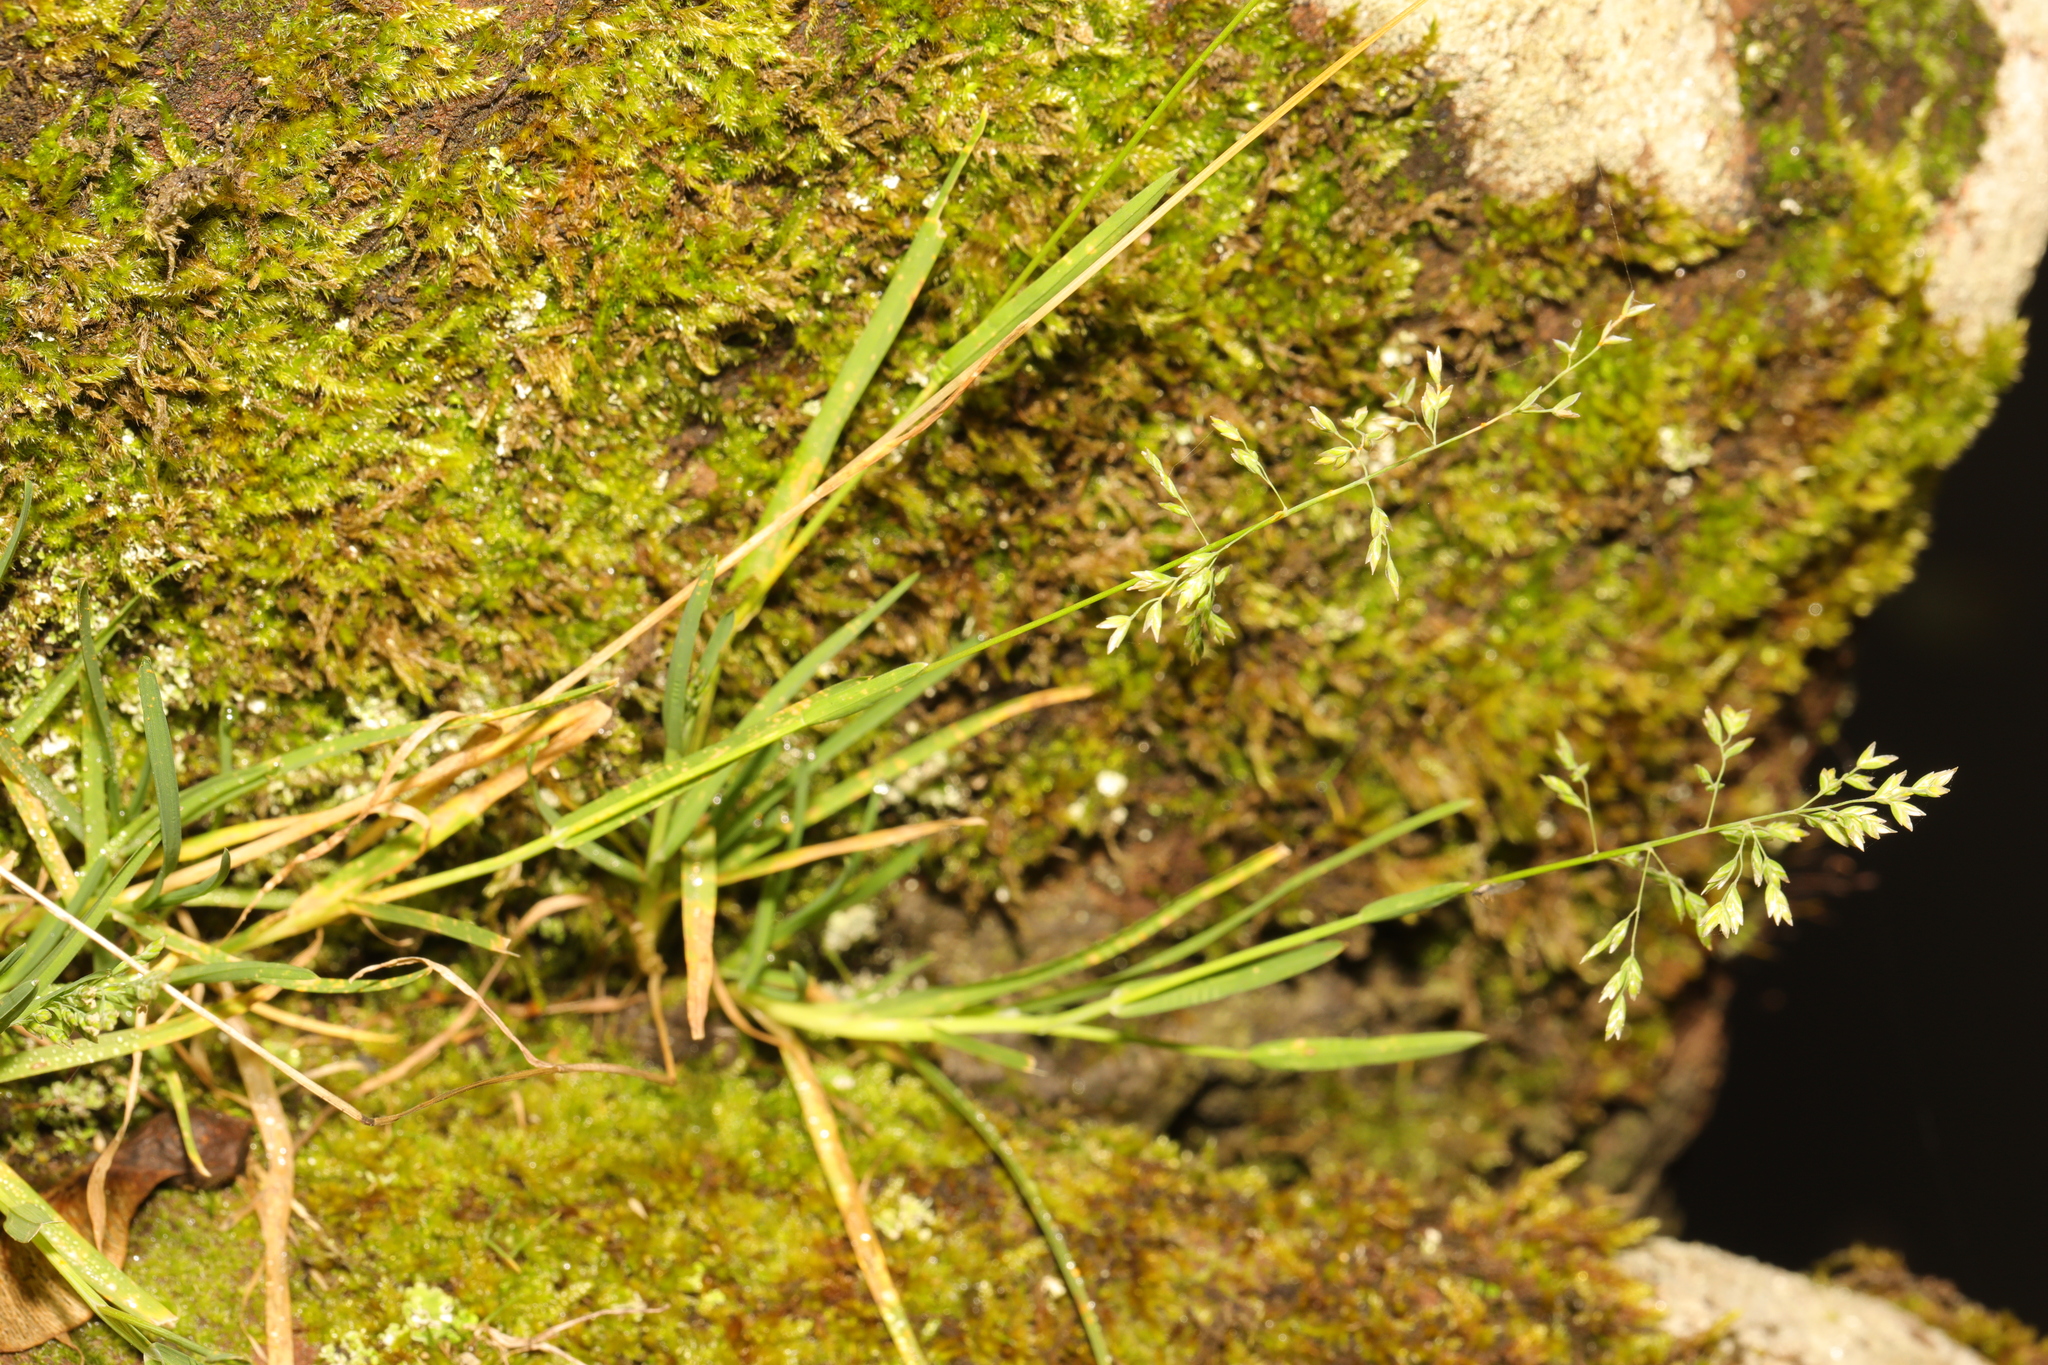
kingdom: Plantae
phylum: Tracheophyta
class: Liliopsida
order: Poales
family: Poaceae
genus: Poa
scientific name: Poa annua
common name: Annual bluegrass
